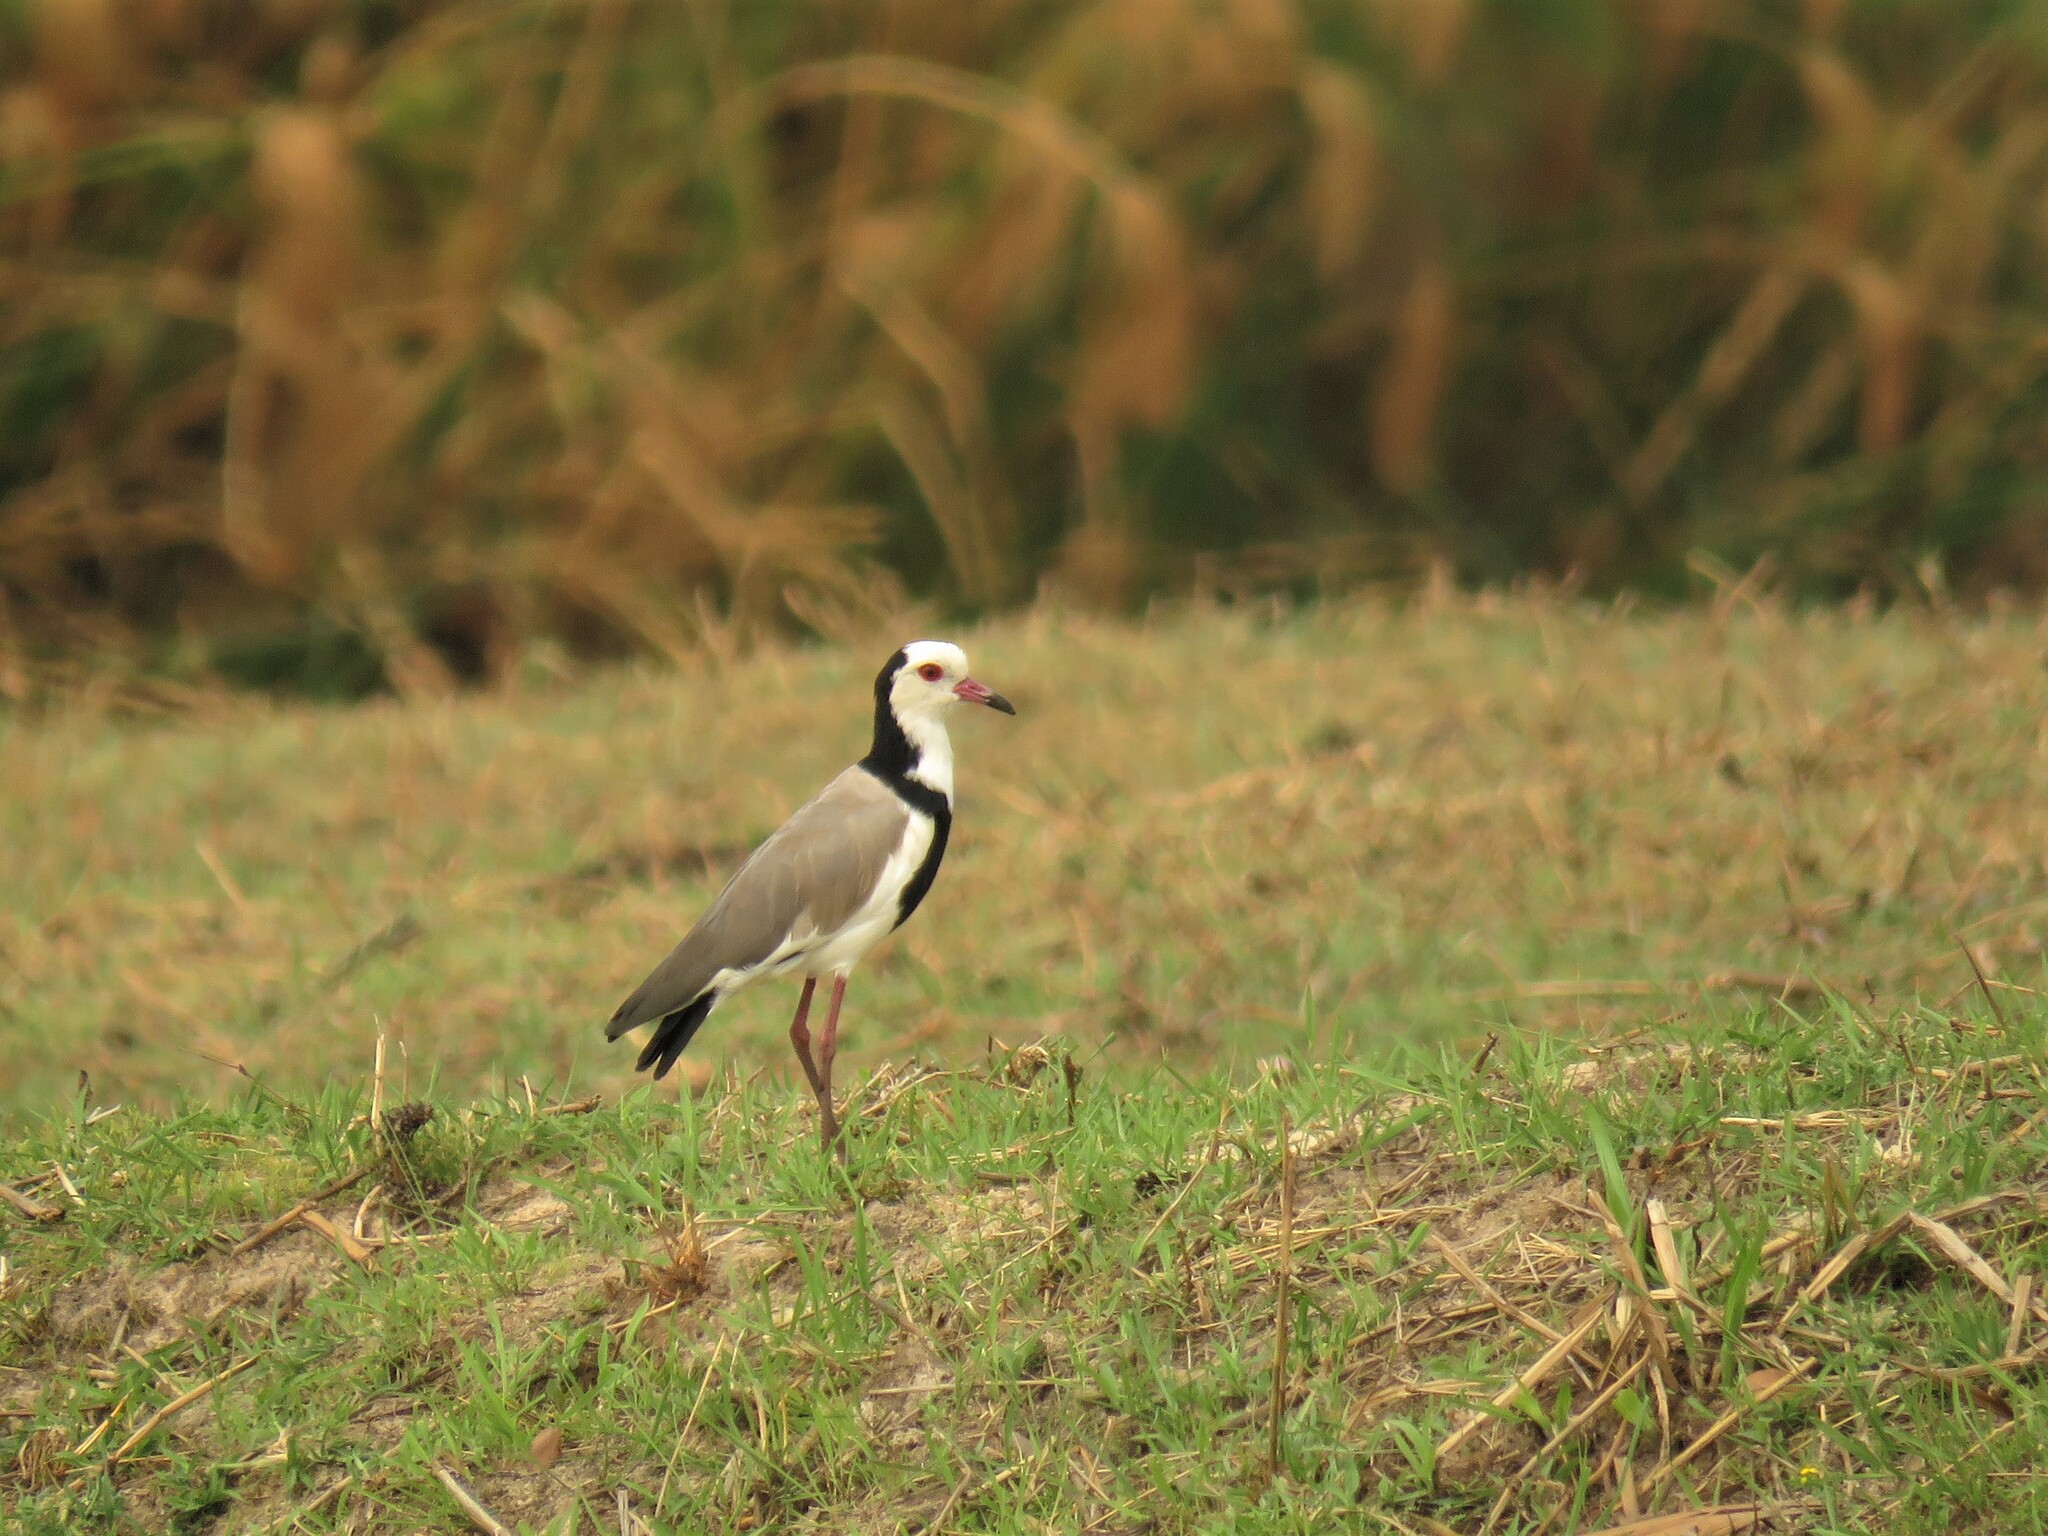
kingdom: Animalia
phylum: Chordata
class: Aves
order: Charadriiformes
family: Charadriidae
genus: Vanellus
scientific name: Vanellus crassirostris
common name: Long-toed lapwing
